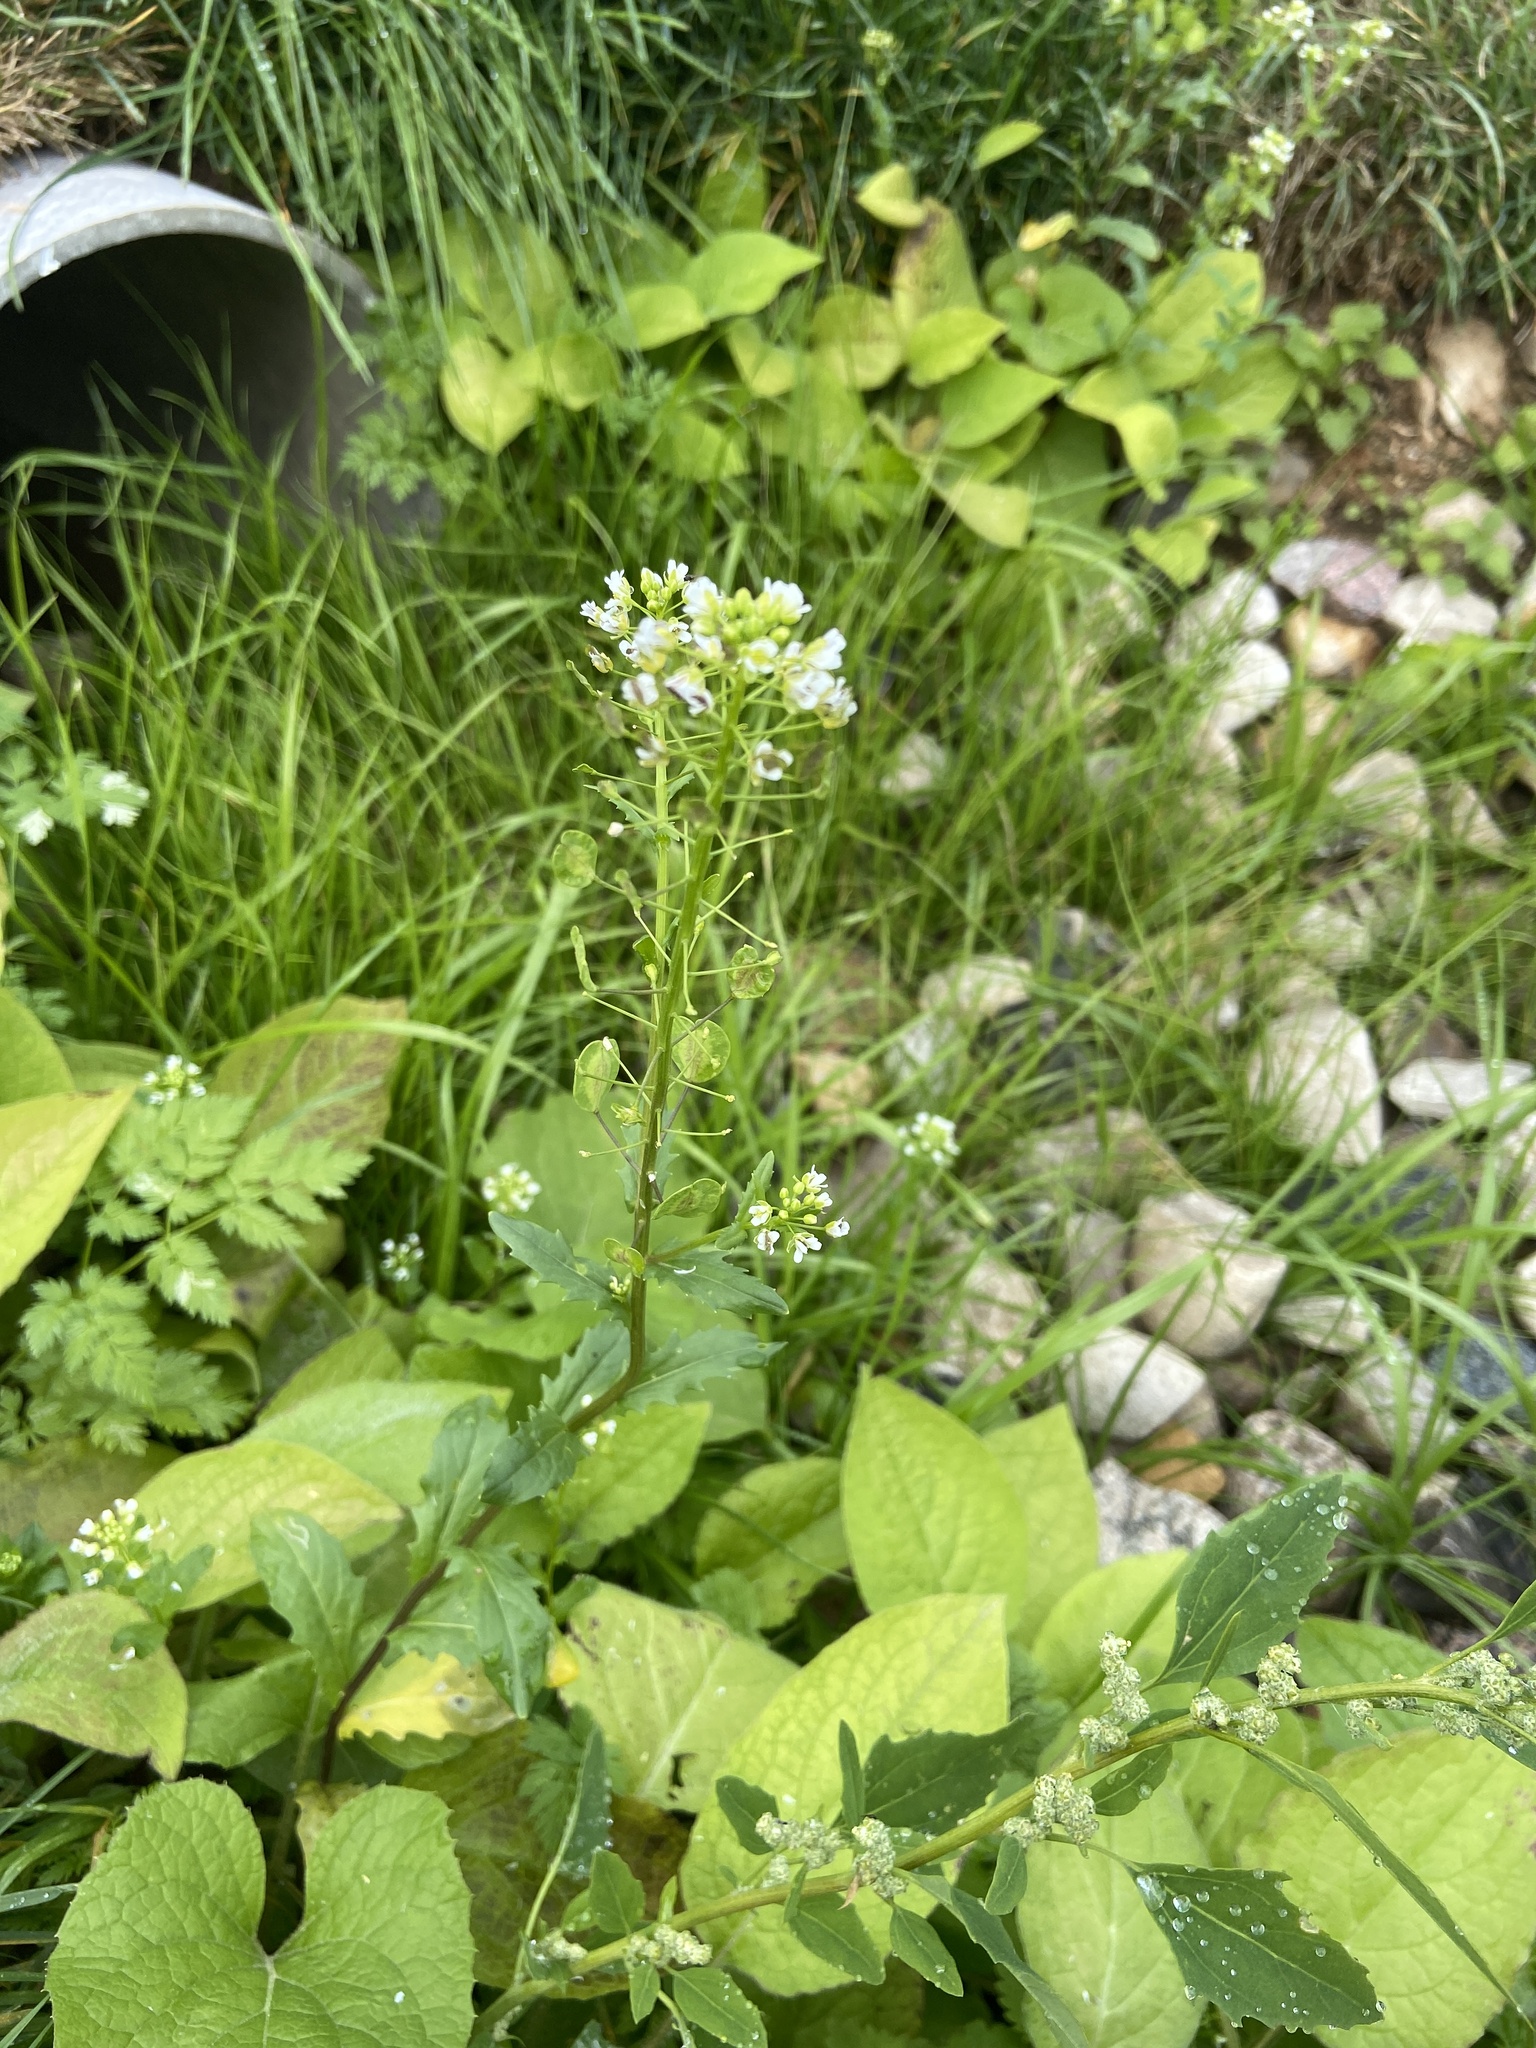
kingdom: Plantae
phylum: Tracheophyta
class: Magnoliopsida
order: Brassicales
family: Brassicaceae
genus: Thlaspi
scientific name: Thlaspi arvense
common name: Field pennycress
